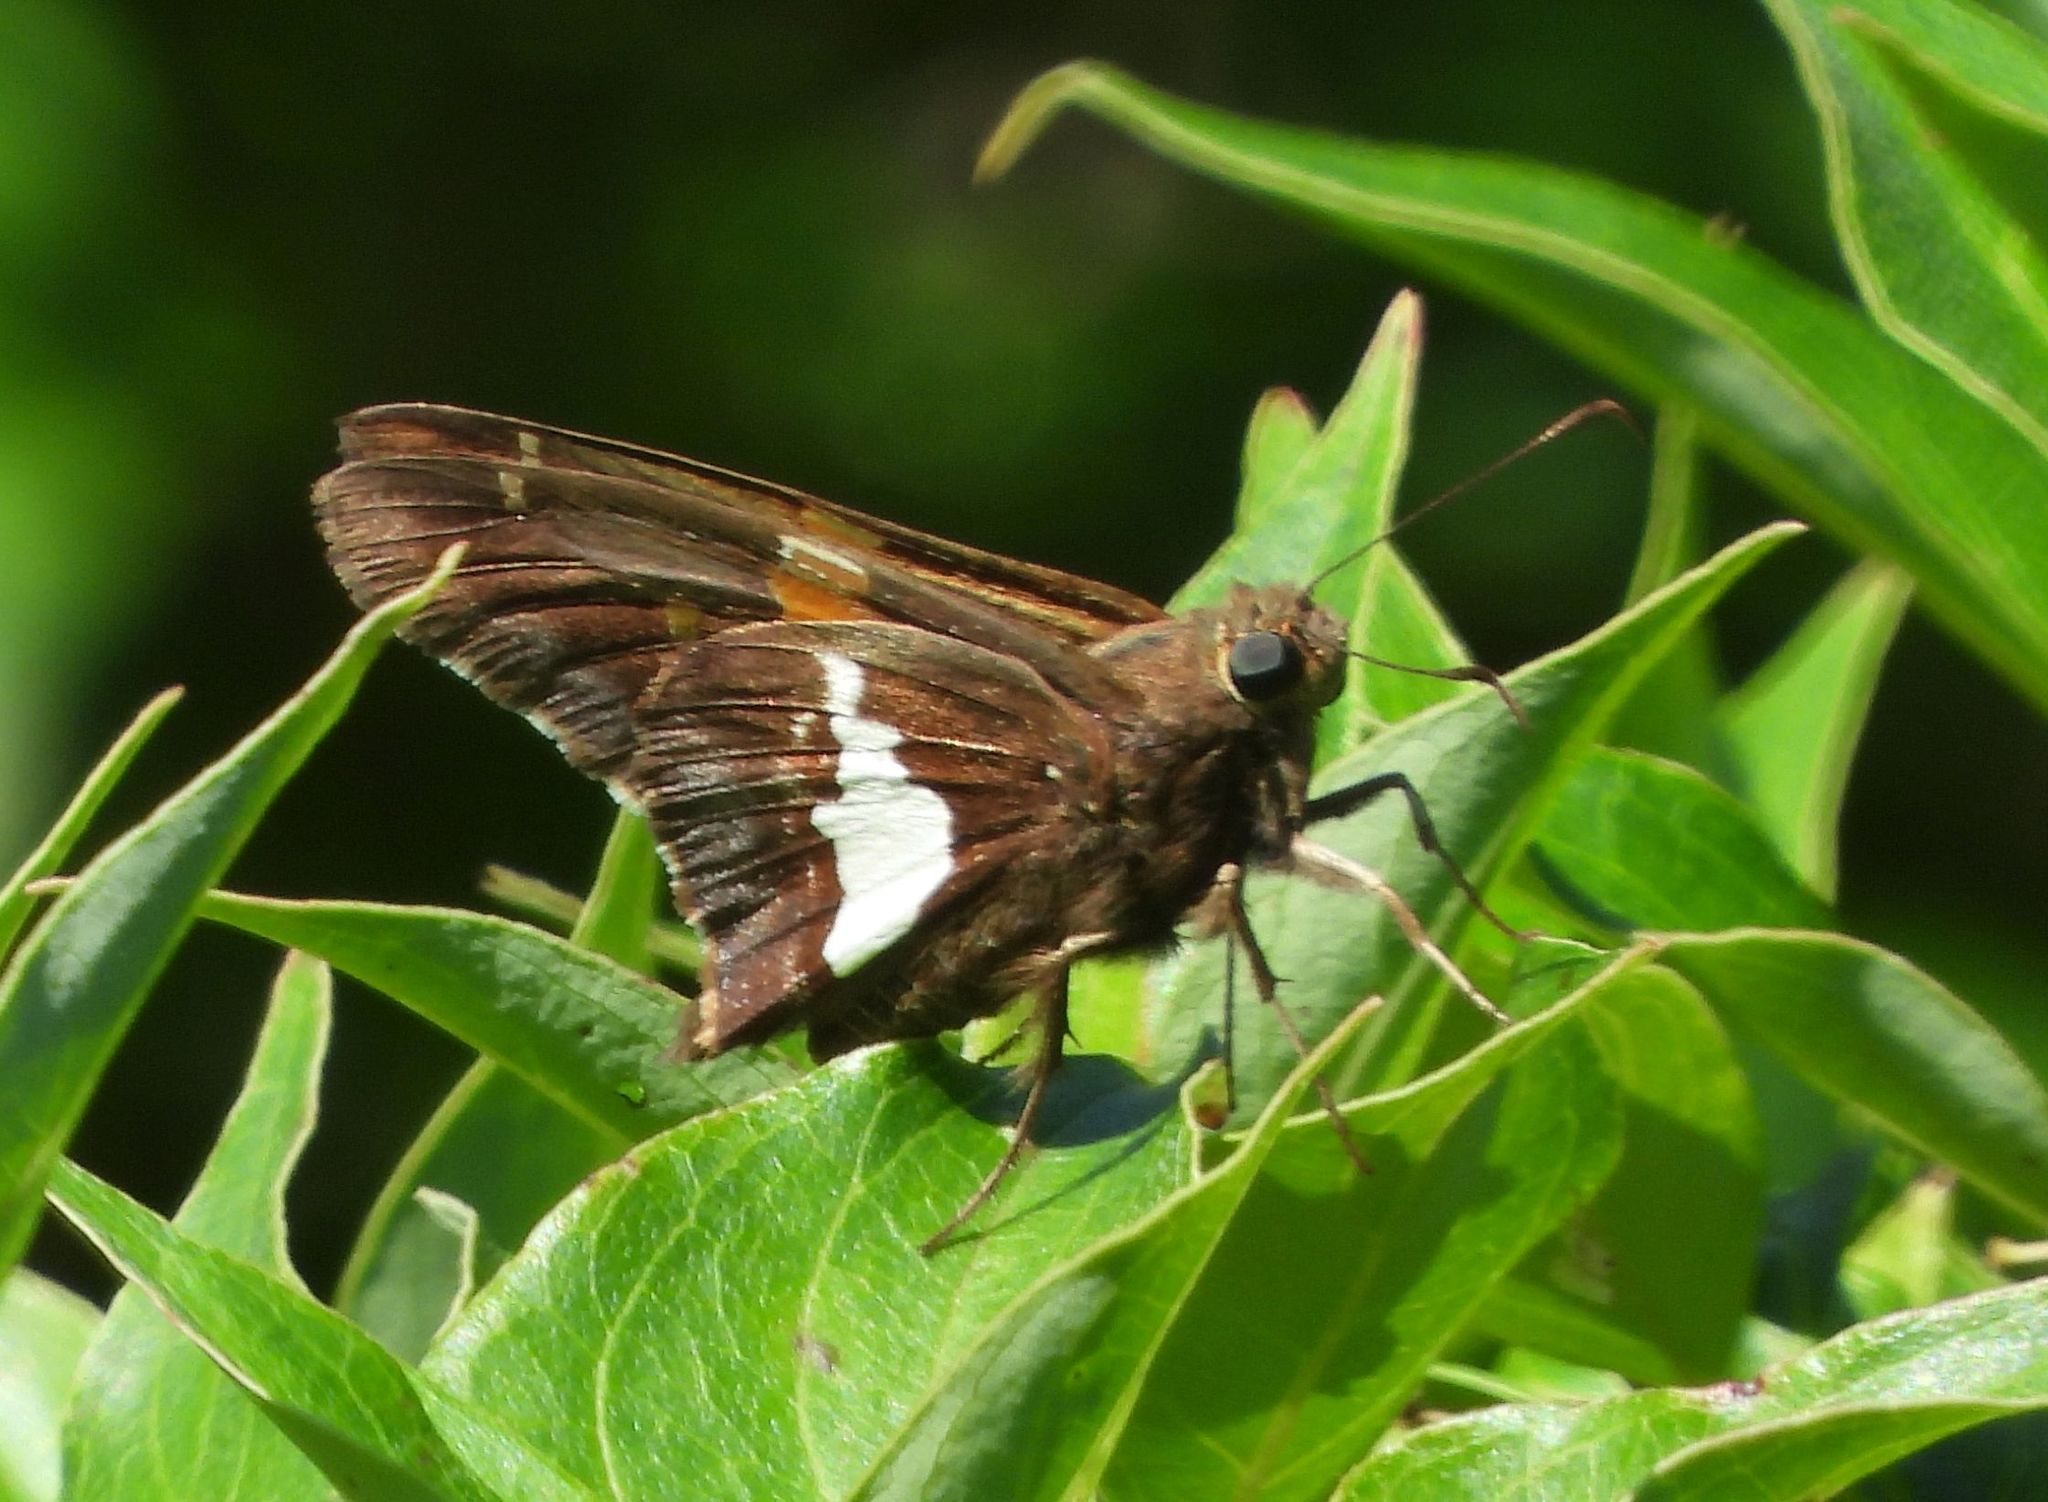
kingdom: Animalia
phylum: Arthropoda
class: Insecta
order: Lepidoptera
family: Hesperiidae
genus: Epargyreus
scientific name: Epargyreus clarus
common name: Silver-spotted skipper
